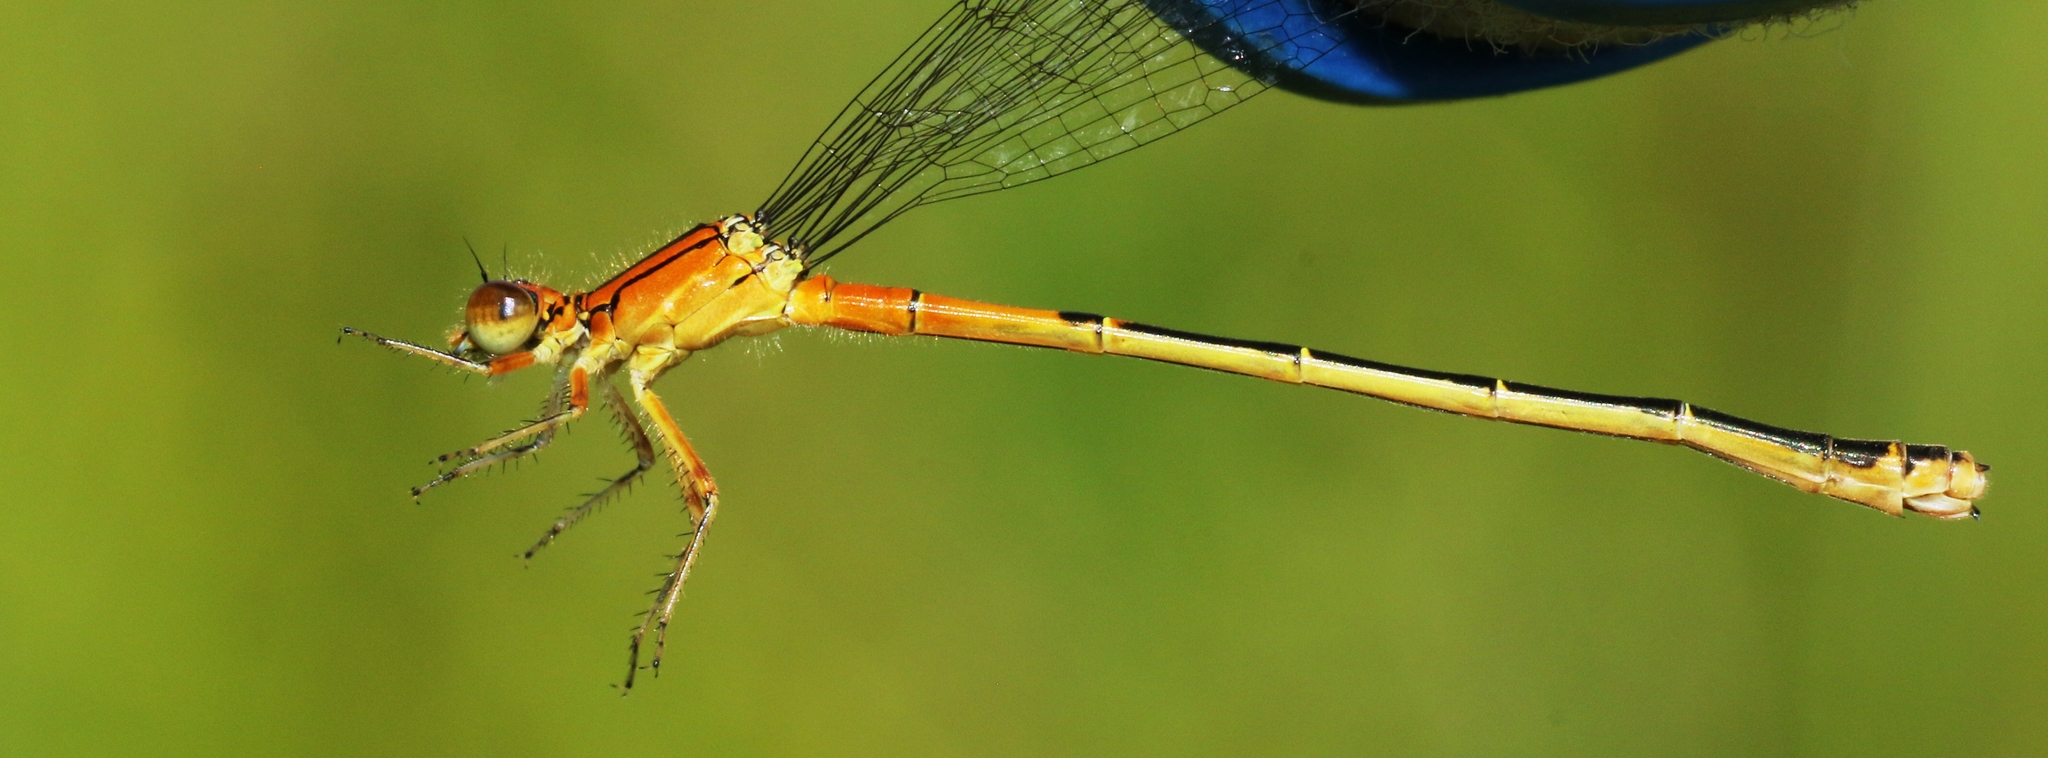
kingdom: Animalia
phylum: Arthropoda
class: Insecta
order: Odonata
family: Coenagrionidae
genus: Ischnura
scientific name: Ischnura verticalis
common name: Eastern forktail
